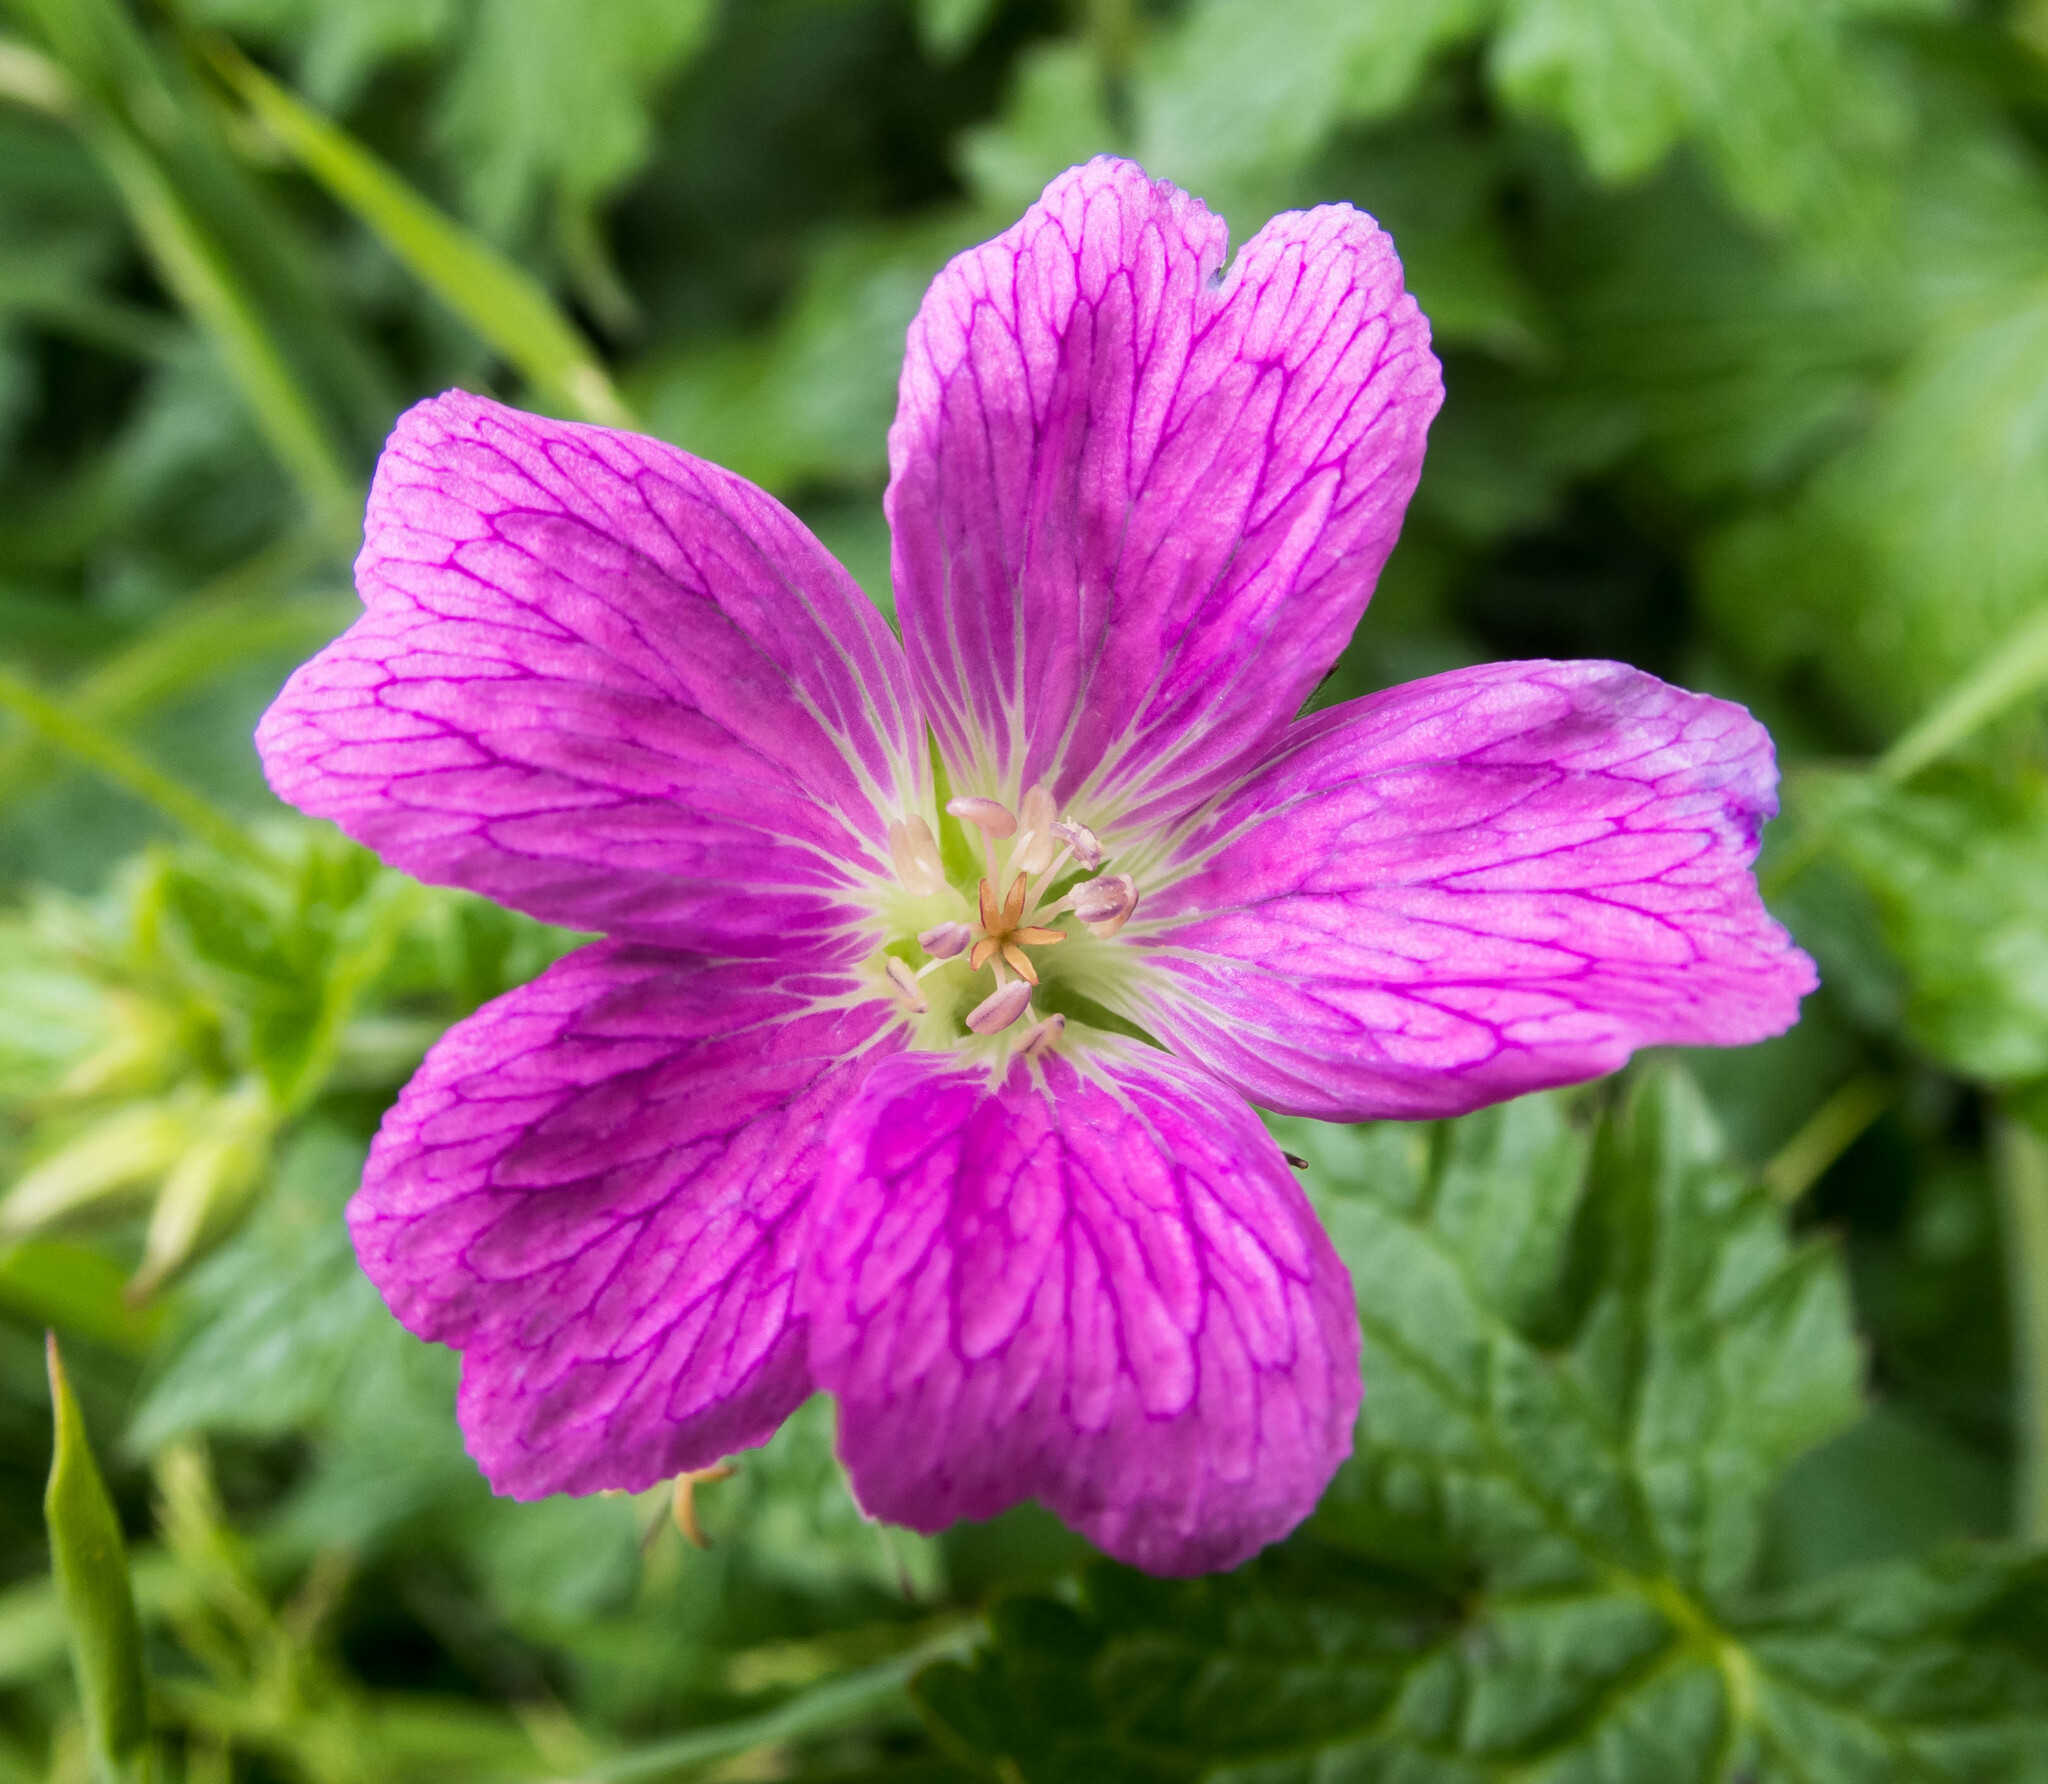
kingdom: Plantae
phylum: Tracheophyta
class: Magnoliopsida
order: Geraniales
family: Geraniaceae
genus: Geranium
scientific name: Geranium oxonianum
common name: Druce's crane's-bill
